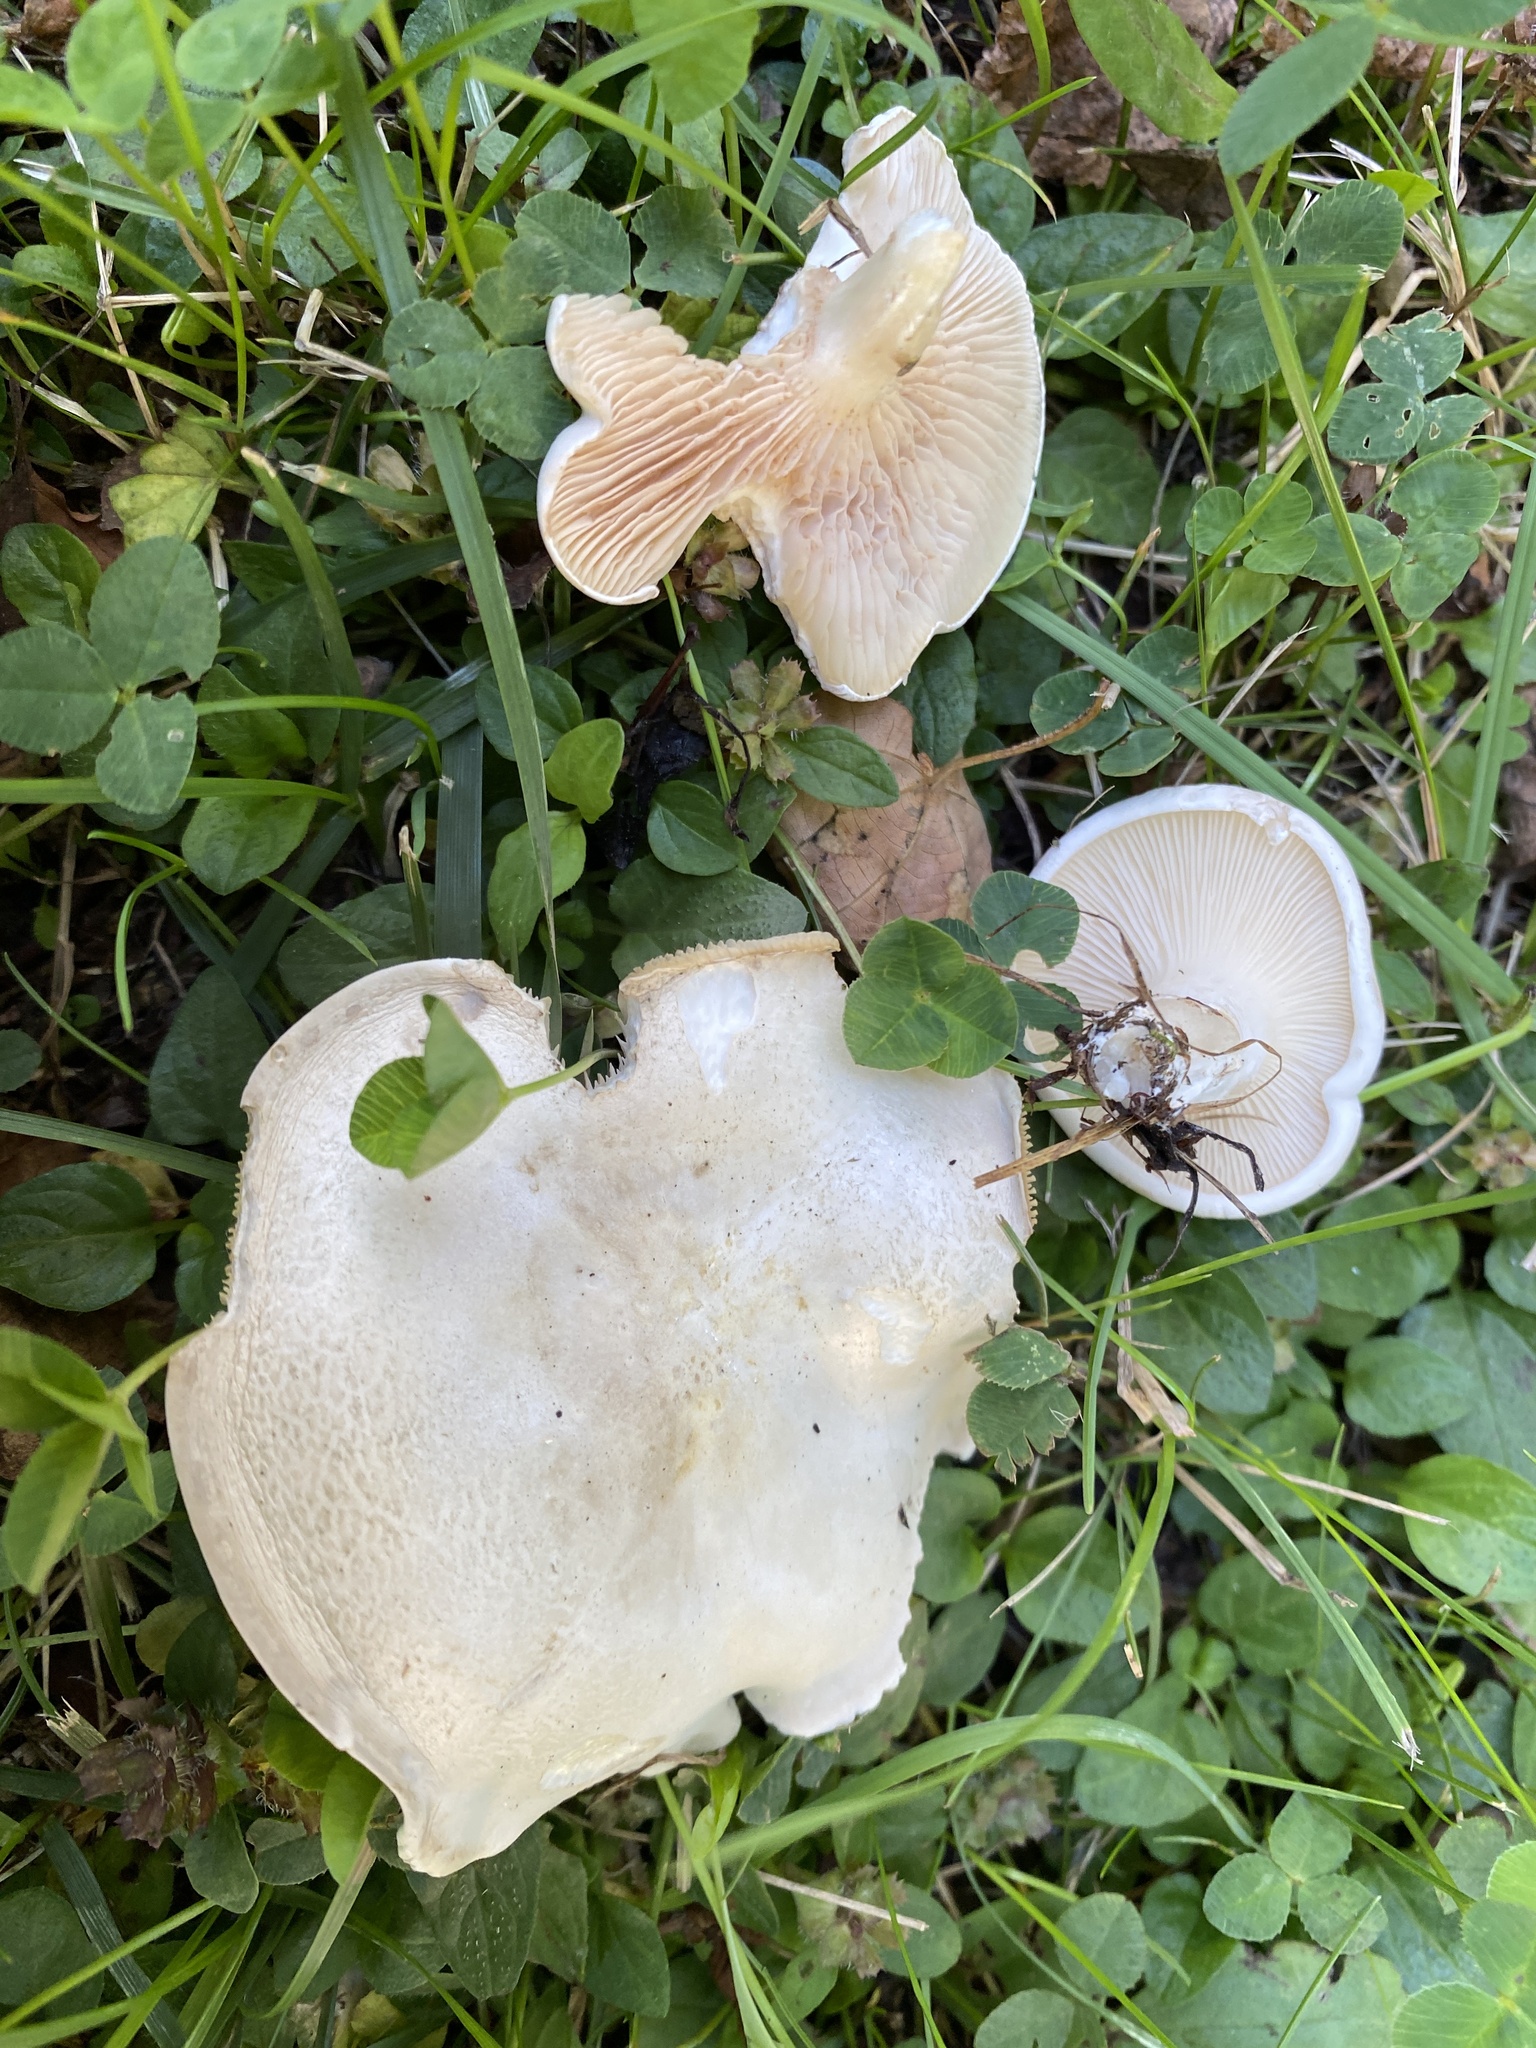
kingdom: Fungi
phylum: Basidiomycota
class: Agaricomycetes
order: Agaricales
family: Entolomataceae
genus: Clitopilus
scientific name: Clitopilus prunulus
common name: The miller
